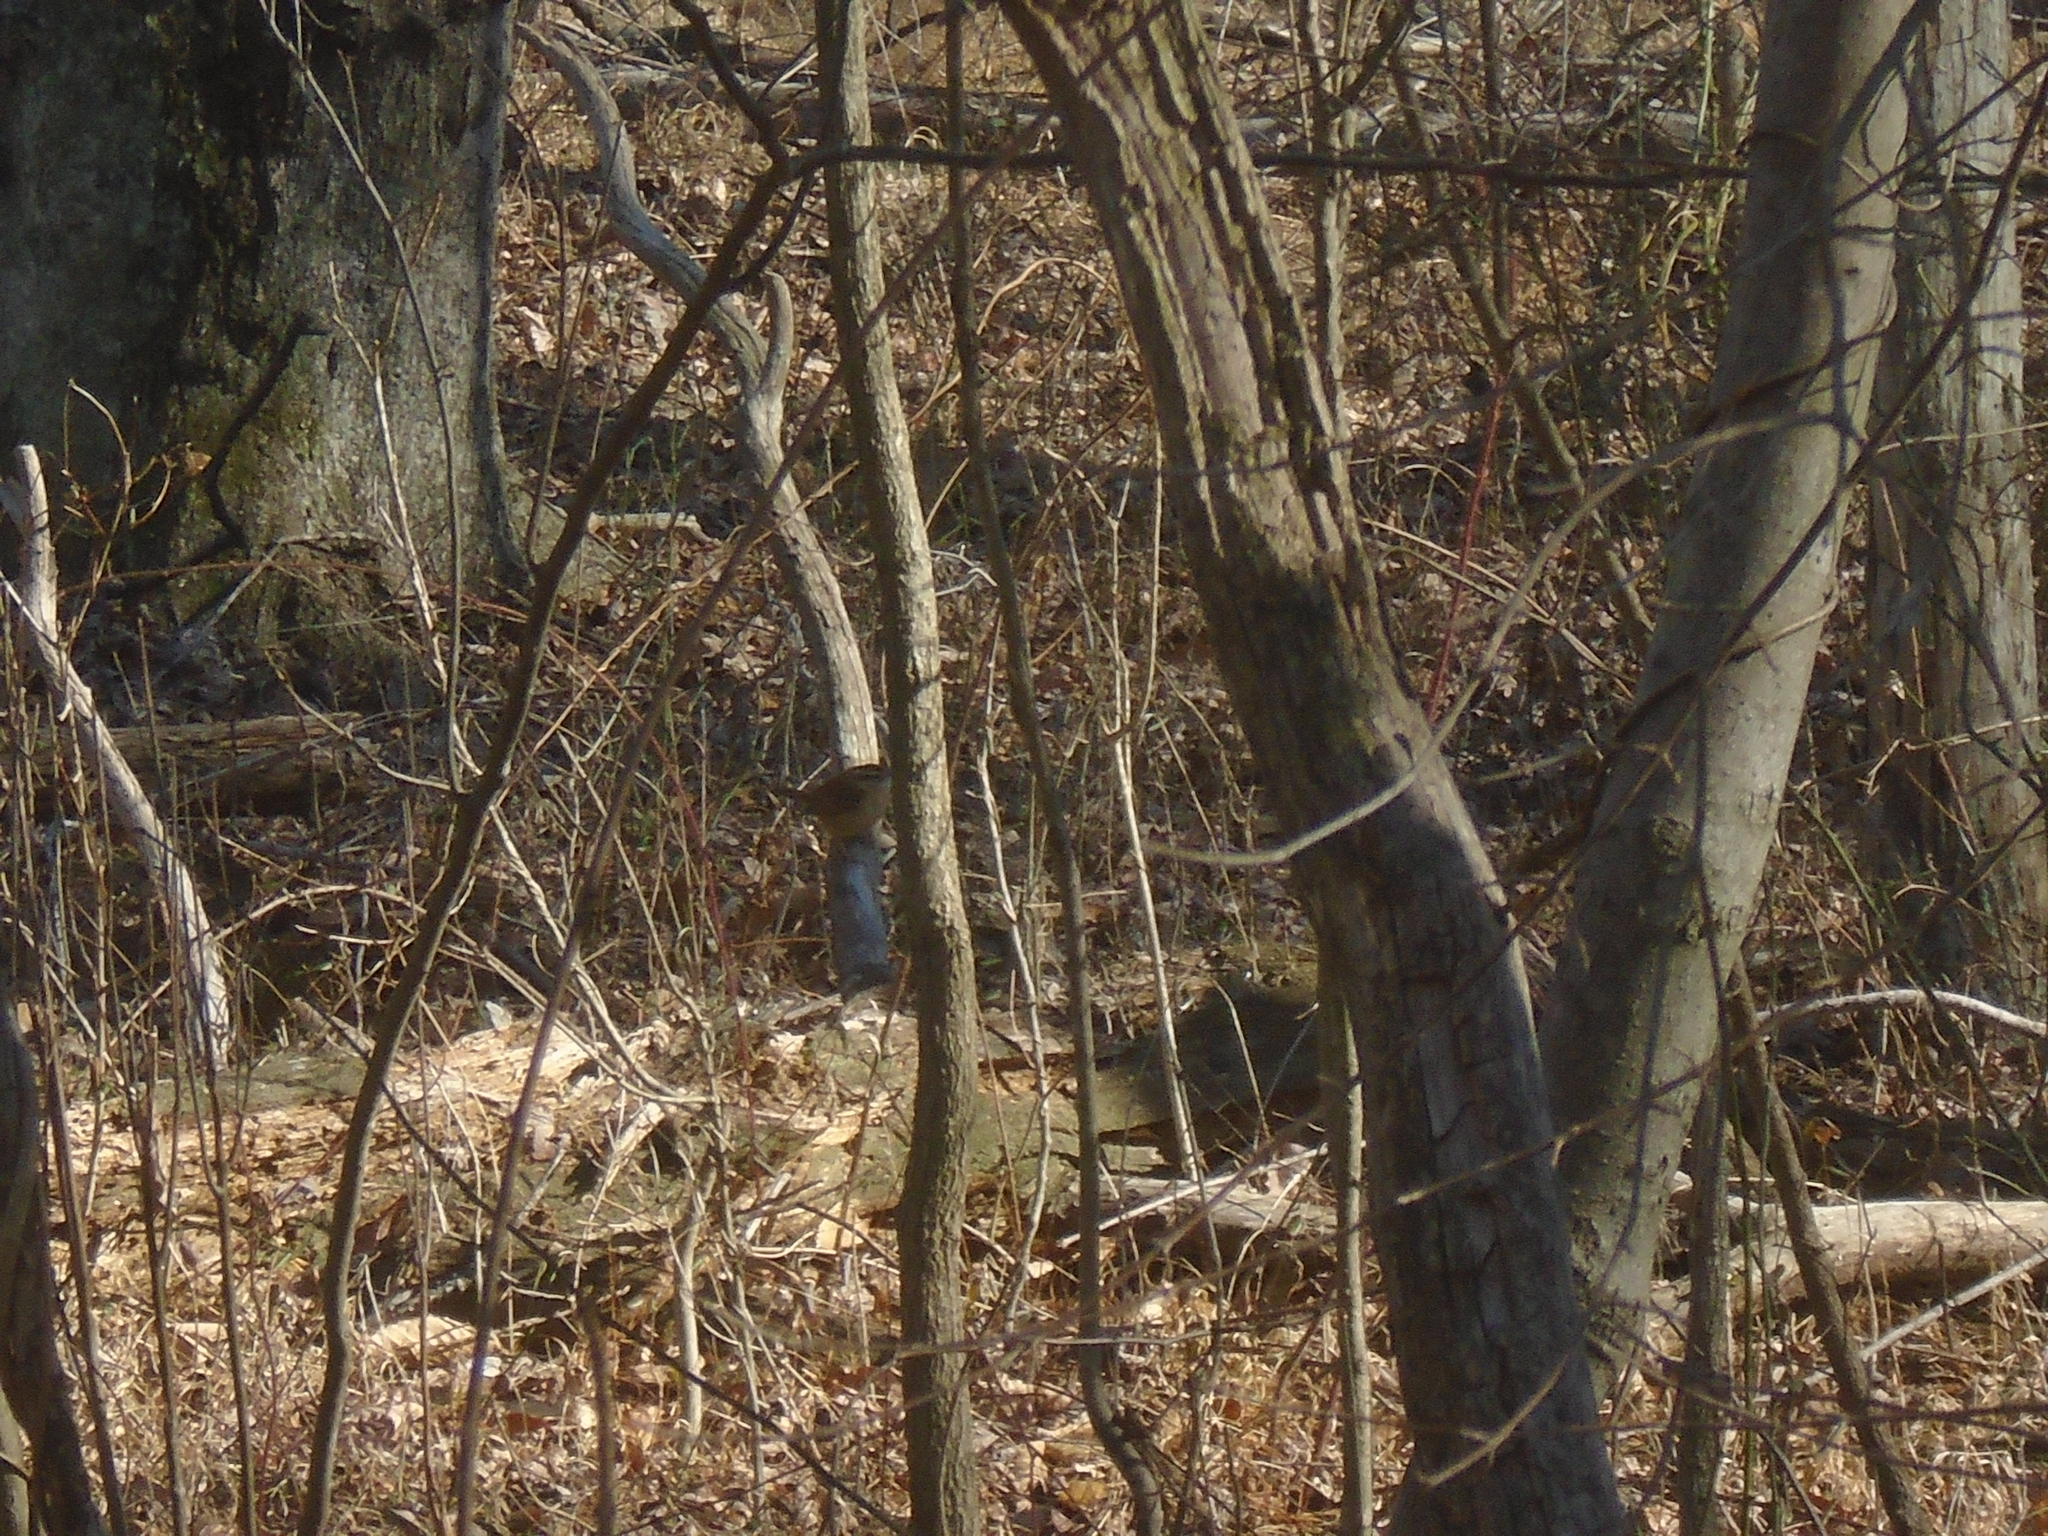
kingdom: Animalia
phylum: Chordata
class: Aves
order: Passeriformes
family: Troglodytidae
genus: Thryothorus
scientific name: Thryothorus ludovicianus
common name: Carolina wren
